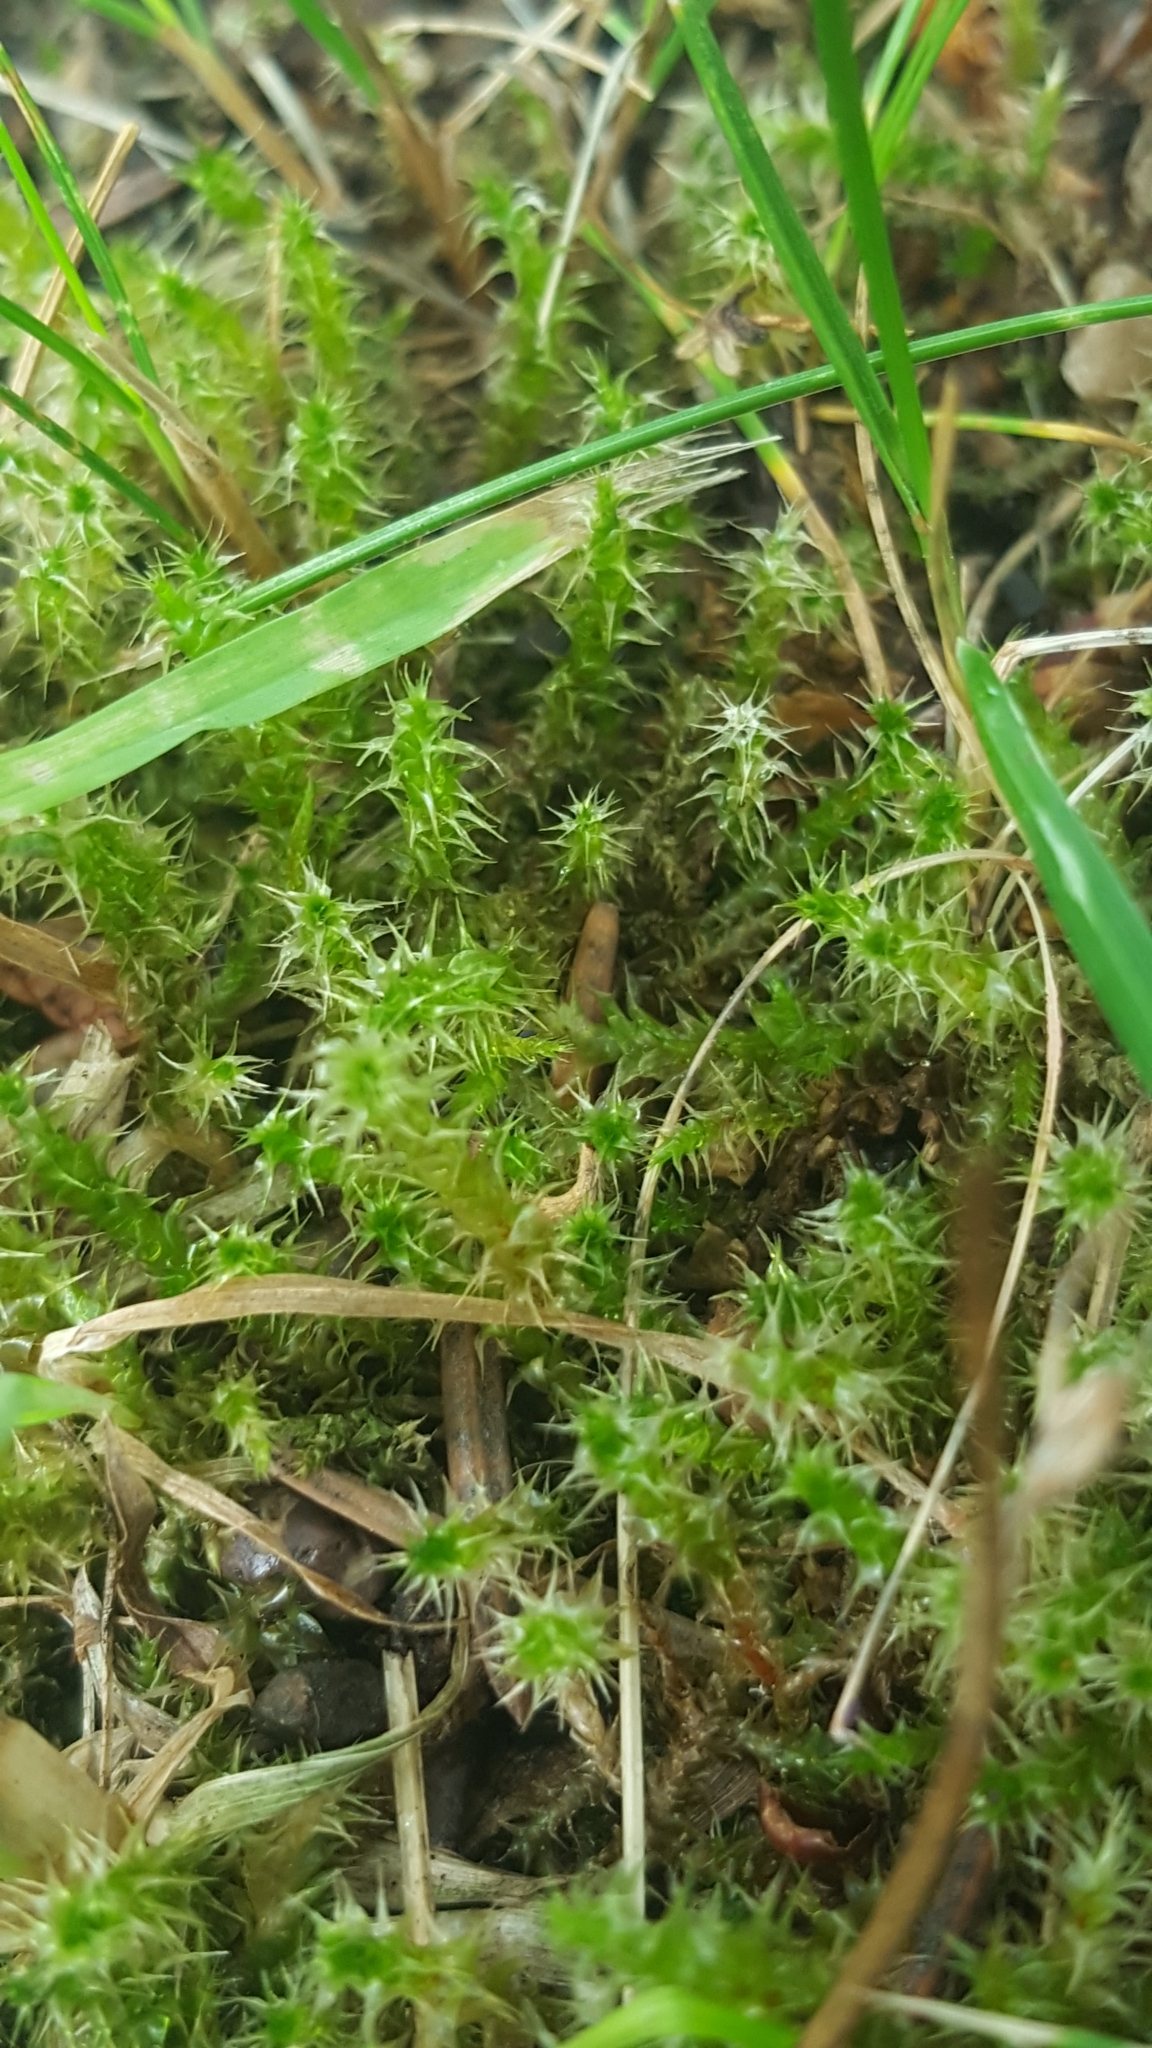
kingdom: Plantae
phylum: Bryophyta
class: Bryopsida
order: Hypnales
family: Hylocomiaceae
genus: Rhytidiadelphus
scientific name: Rhytidiadelphus squarrosus
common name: Springy turf-moss
